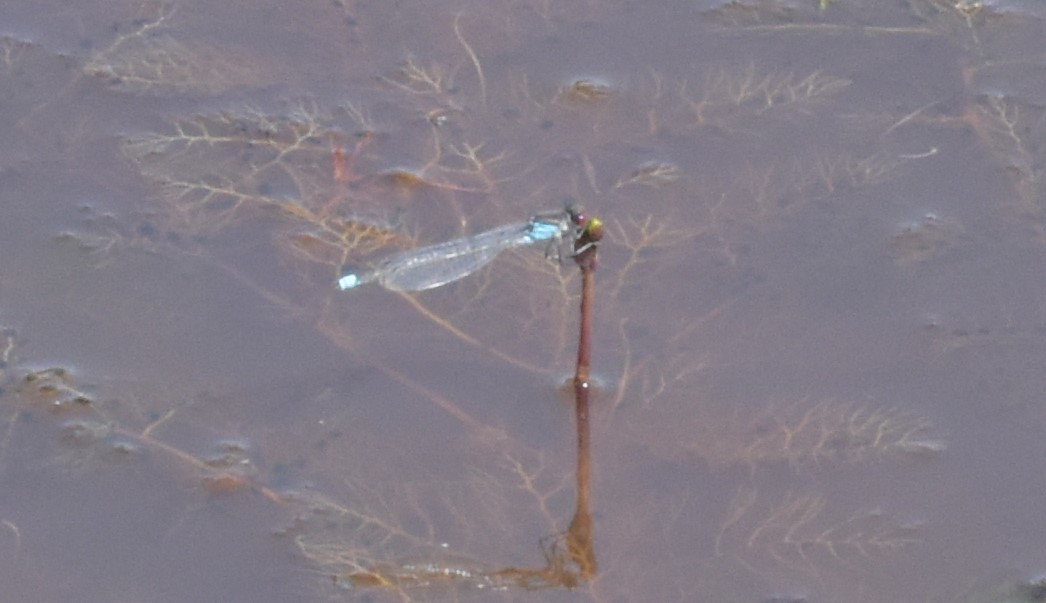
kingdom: Animalia
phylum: Arthropoda
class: Insecta
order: Odonata
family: Coenagrionidae
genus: Erythromma
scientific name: Erythromma najas
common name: Red-eyed damselfly
